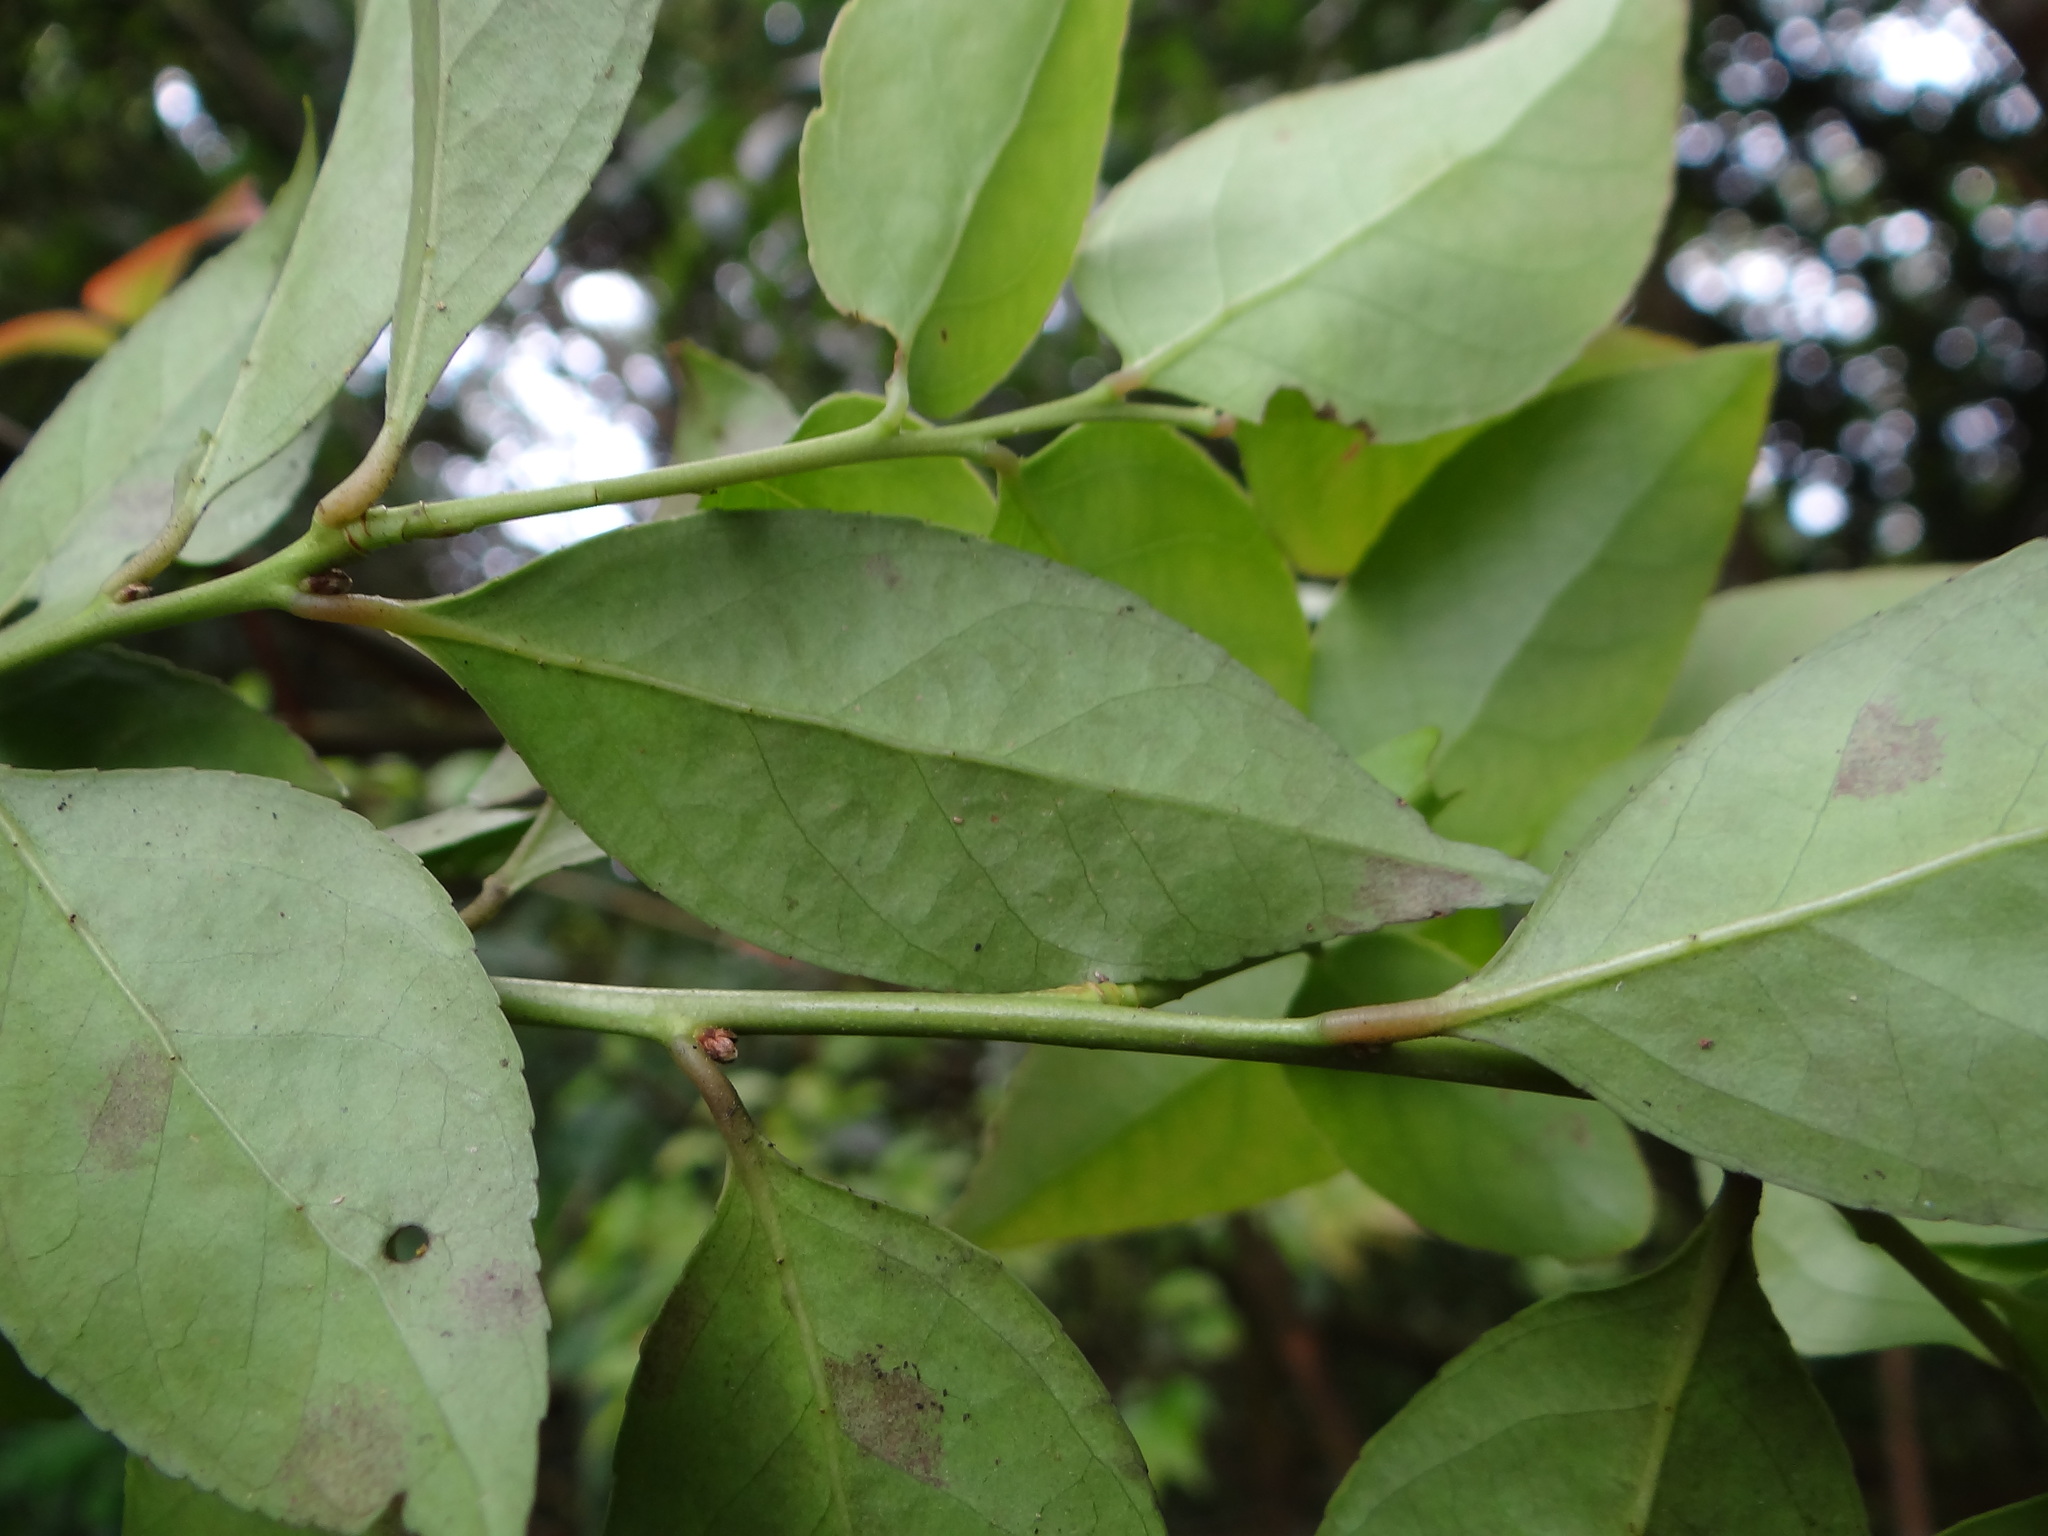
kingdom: Plantae
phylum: Tracheophyta
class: Magnoliopsida
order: Ericales
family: Ericaceae
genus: Vaccinium
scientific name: Vaccinium wrightii
